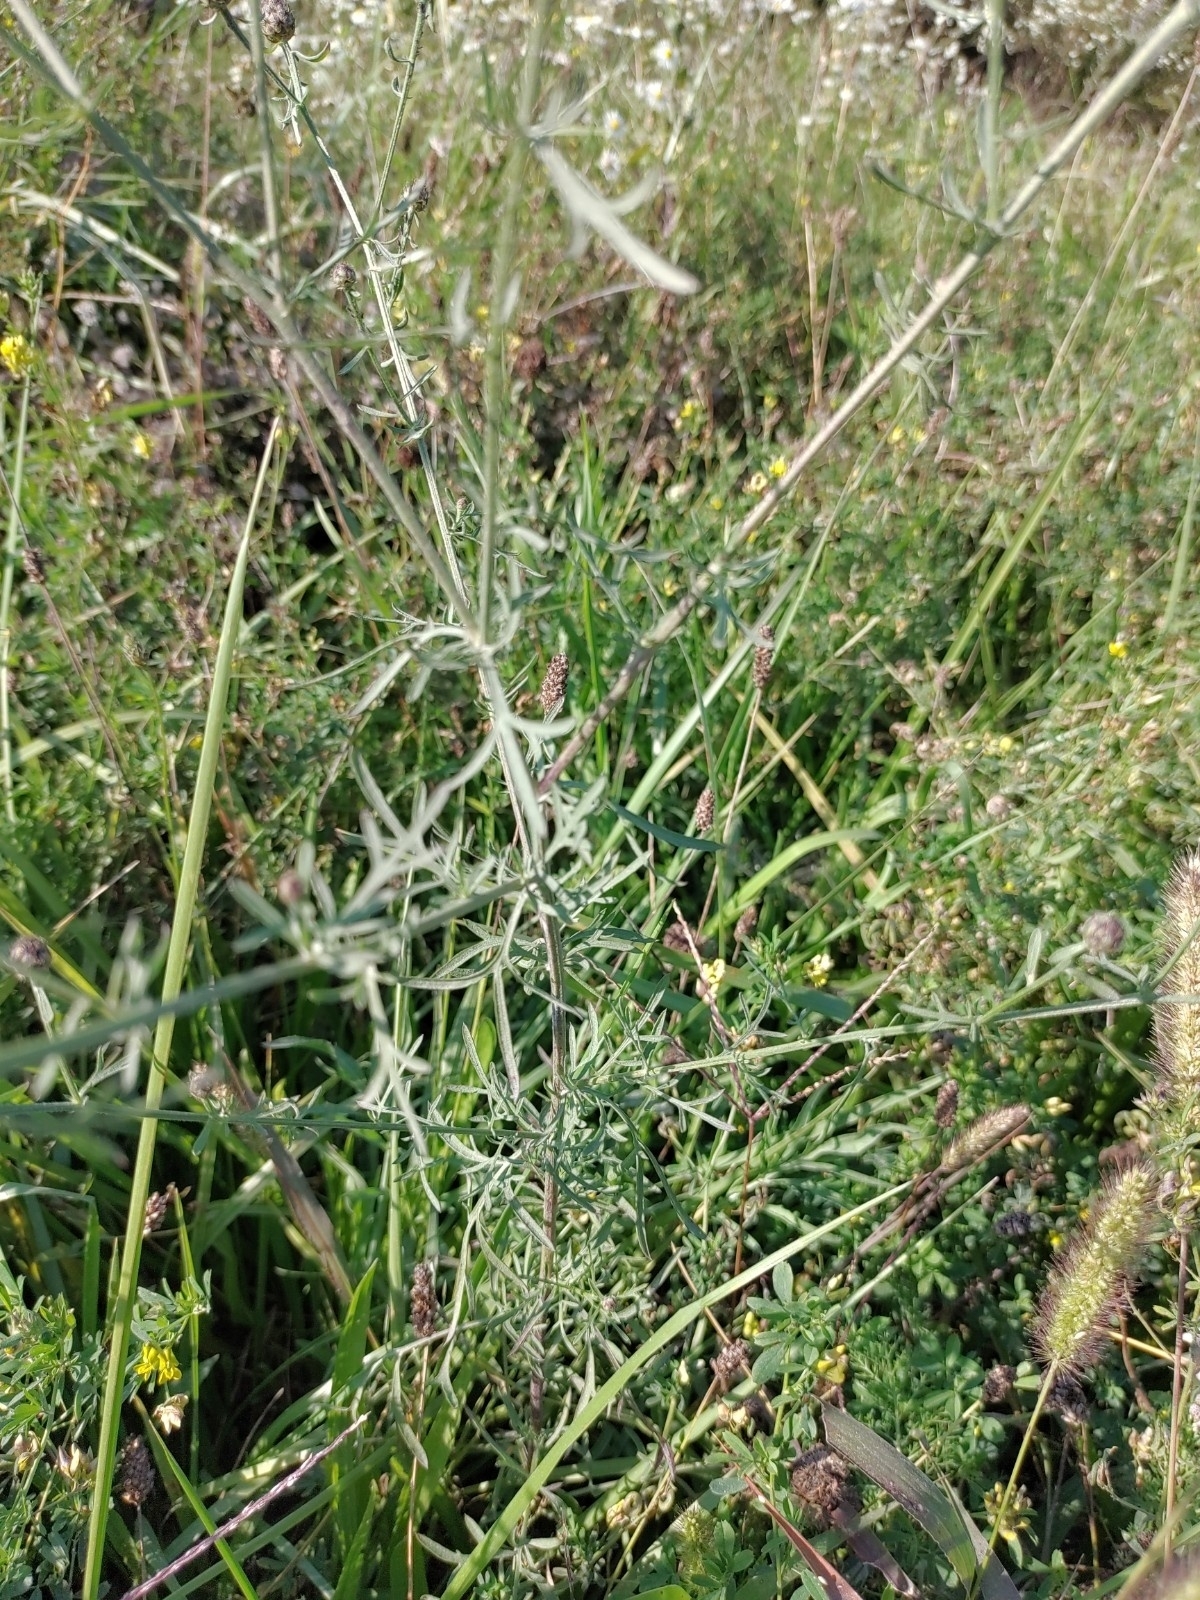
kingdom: Plantae
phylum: Tracheophyta
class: Magnoliopsida
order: Asterales
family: Asteraceae
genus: Centaurea
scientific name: Centaurea stoebe
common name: Spotted knapweed
